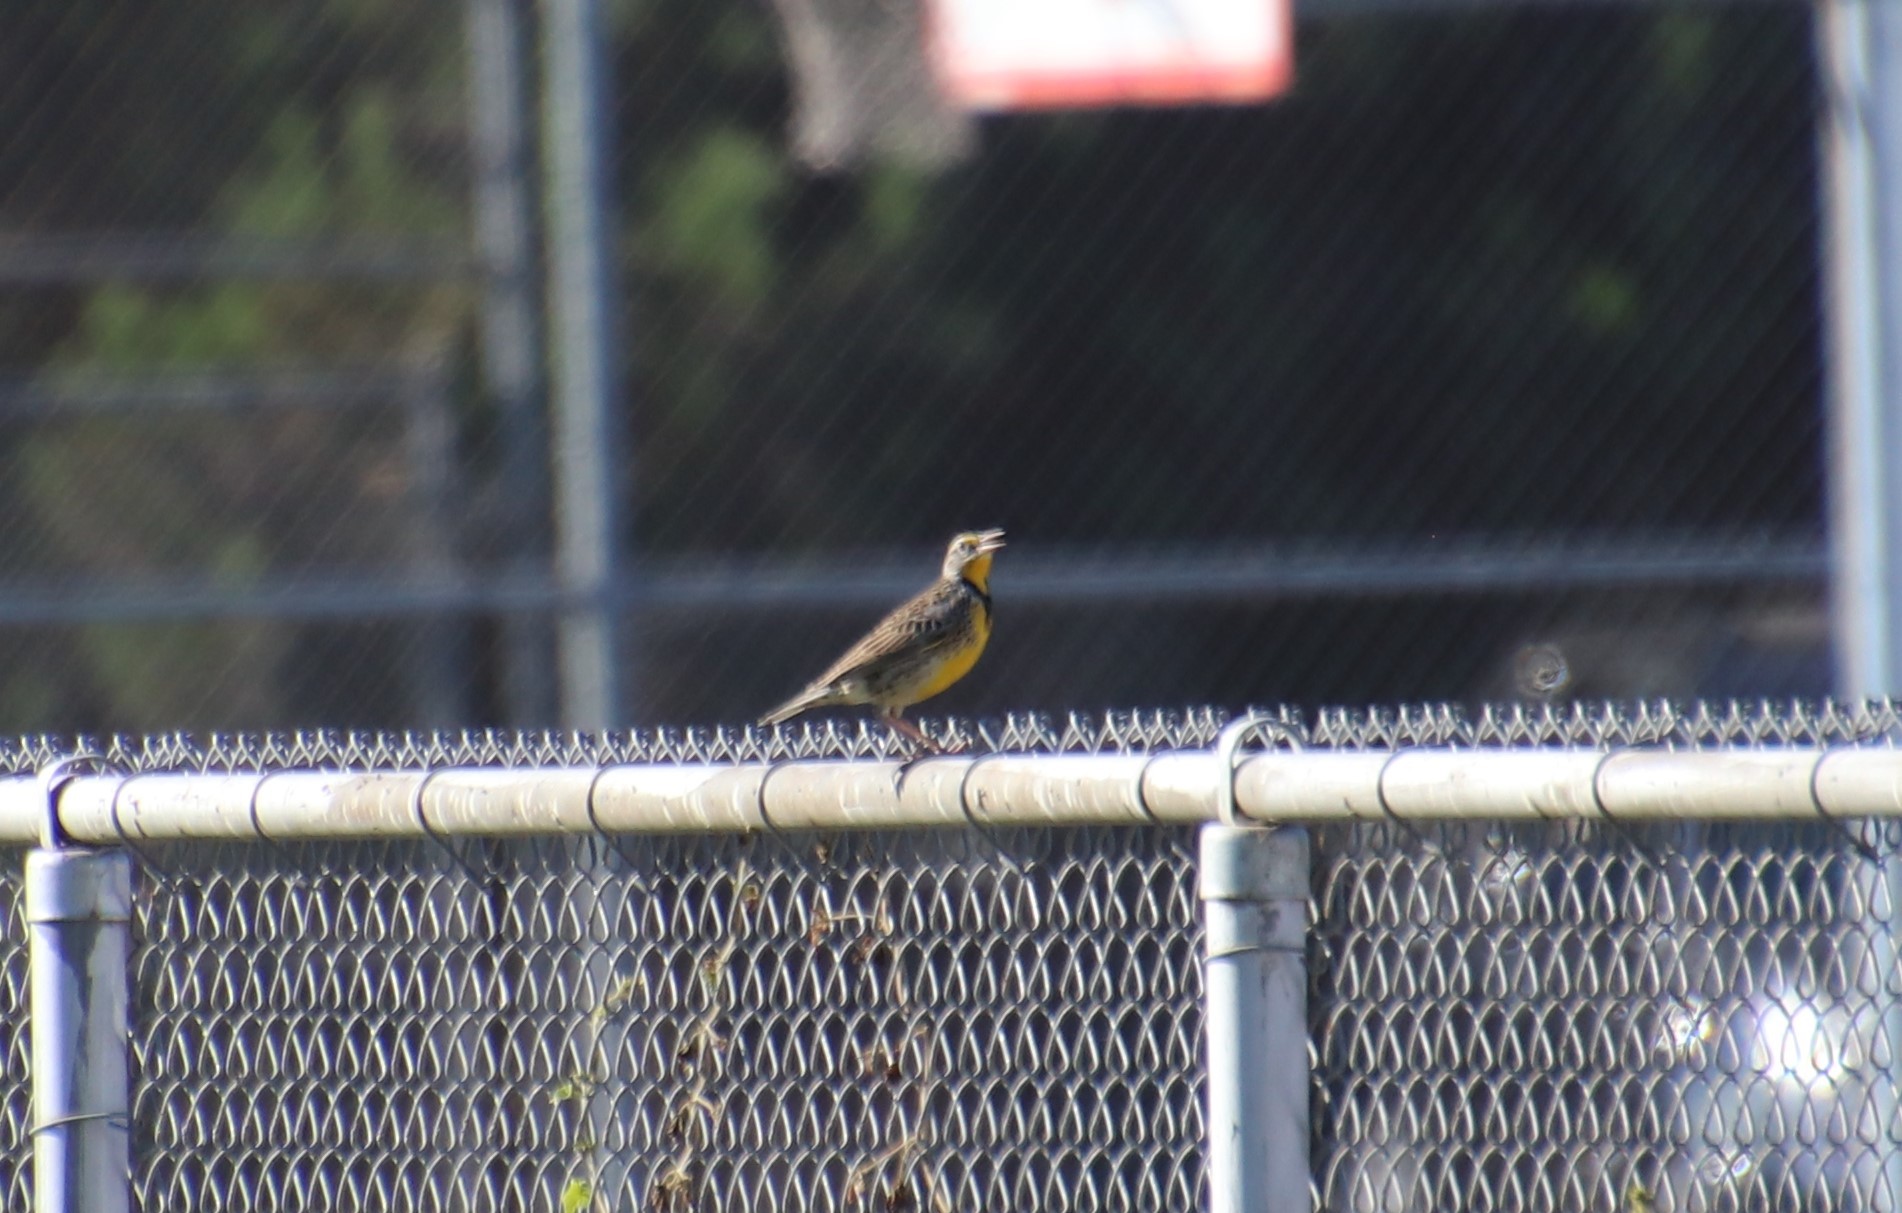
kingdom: Animalia
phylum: Chordata
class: Aves
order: Passeriformes
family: Icteridae
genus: Sturnella
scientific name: Sturnella neglecta
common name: Western meadowlark
